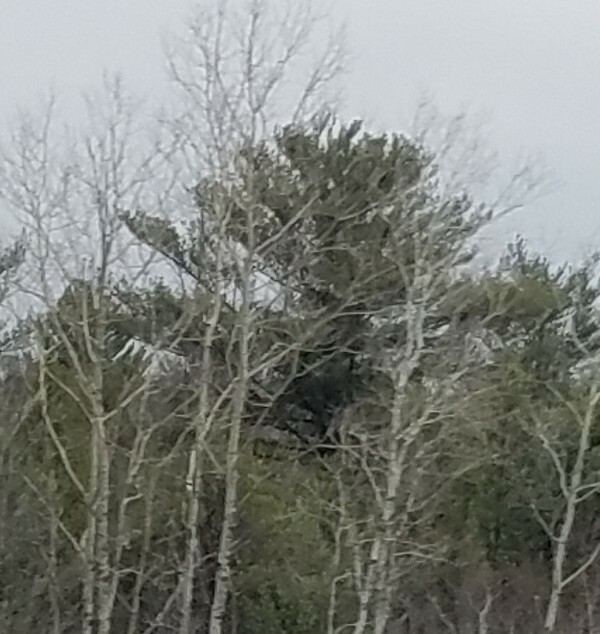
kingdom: Plantae
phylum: Tracheophyta
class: Pinopsida
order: Pinales
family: Pinaceae
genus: Pinus
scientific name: Pinus strobus
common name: Weymouth pine
